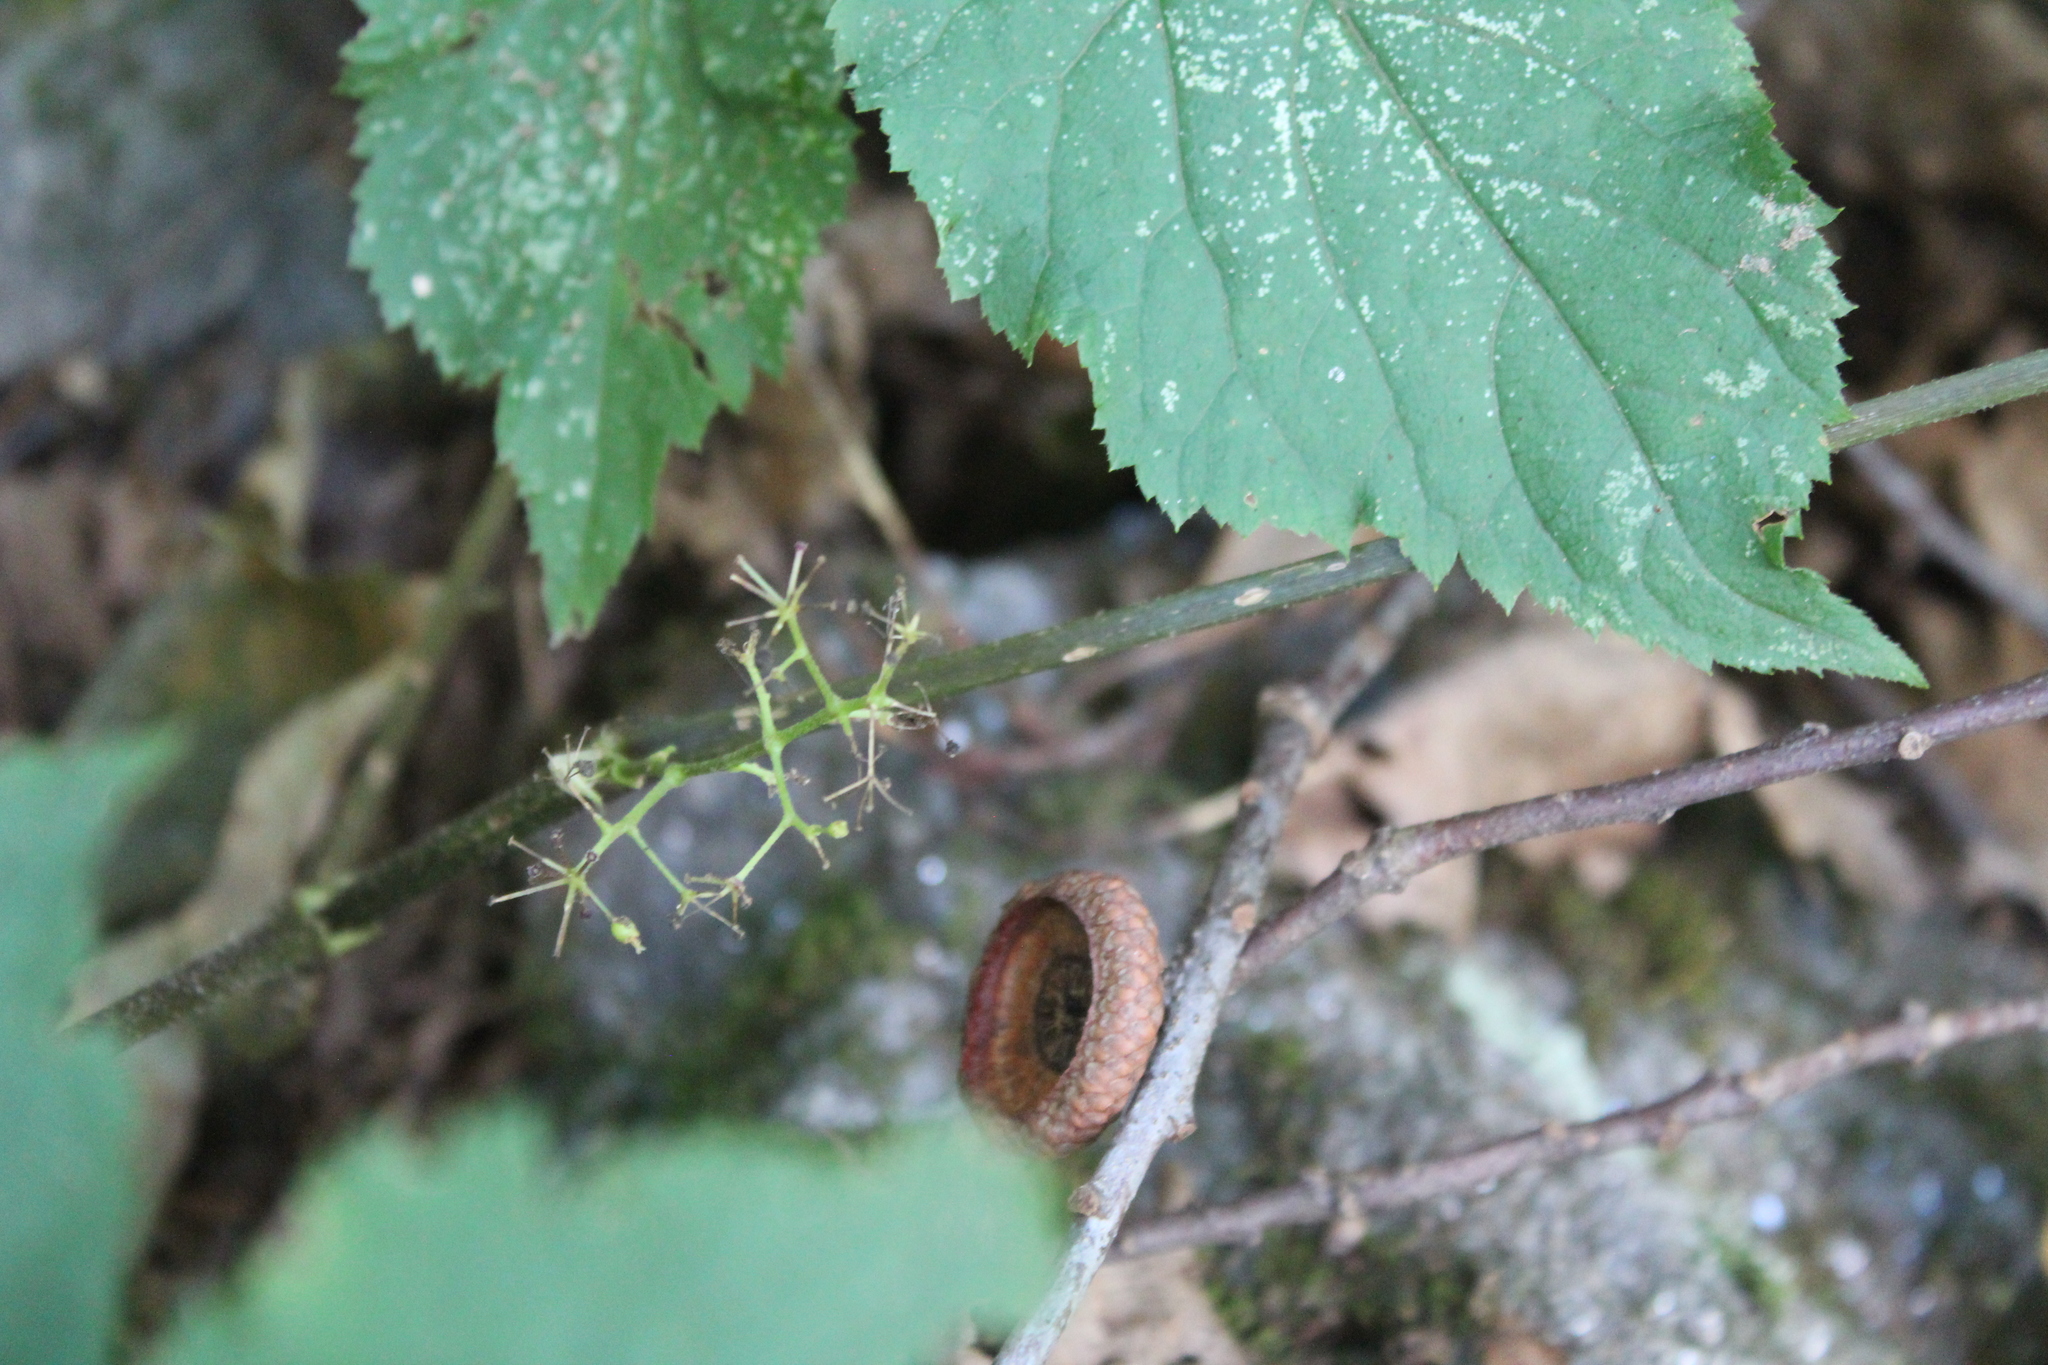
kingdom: Plantae
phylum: Tracheophyta
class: Magnoliopsida
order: Apiales
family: Araliaceae
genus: Aralia
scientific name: Aralia racemosa
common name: American-spikenard
